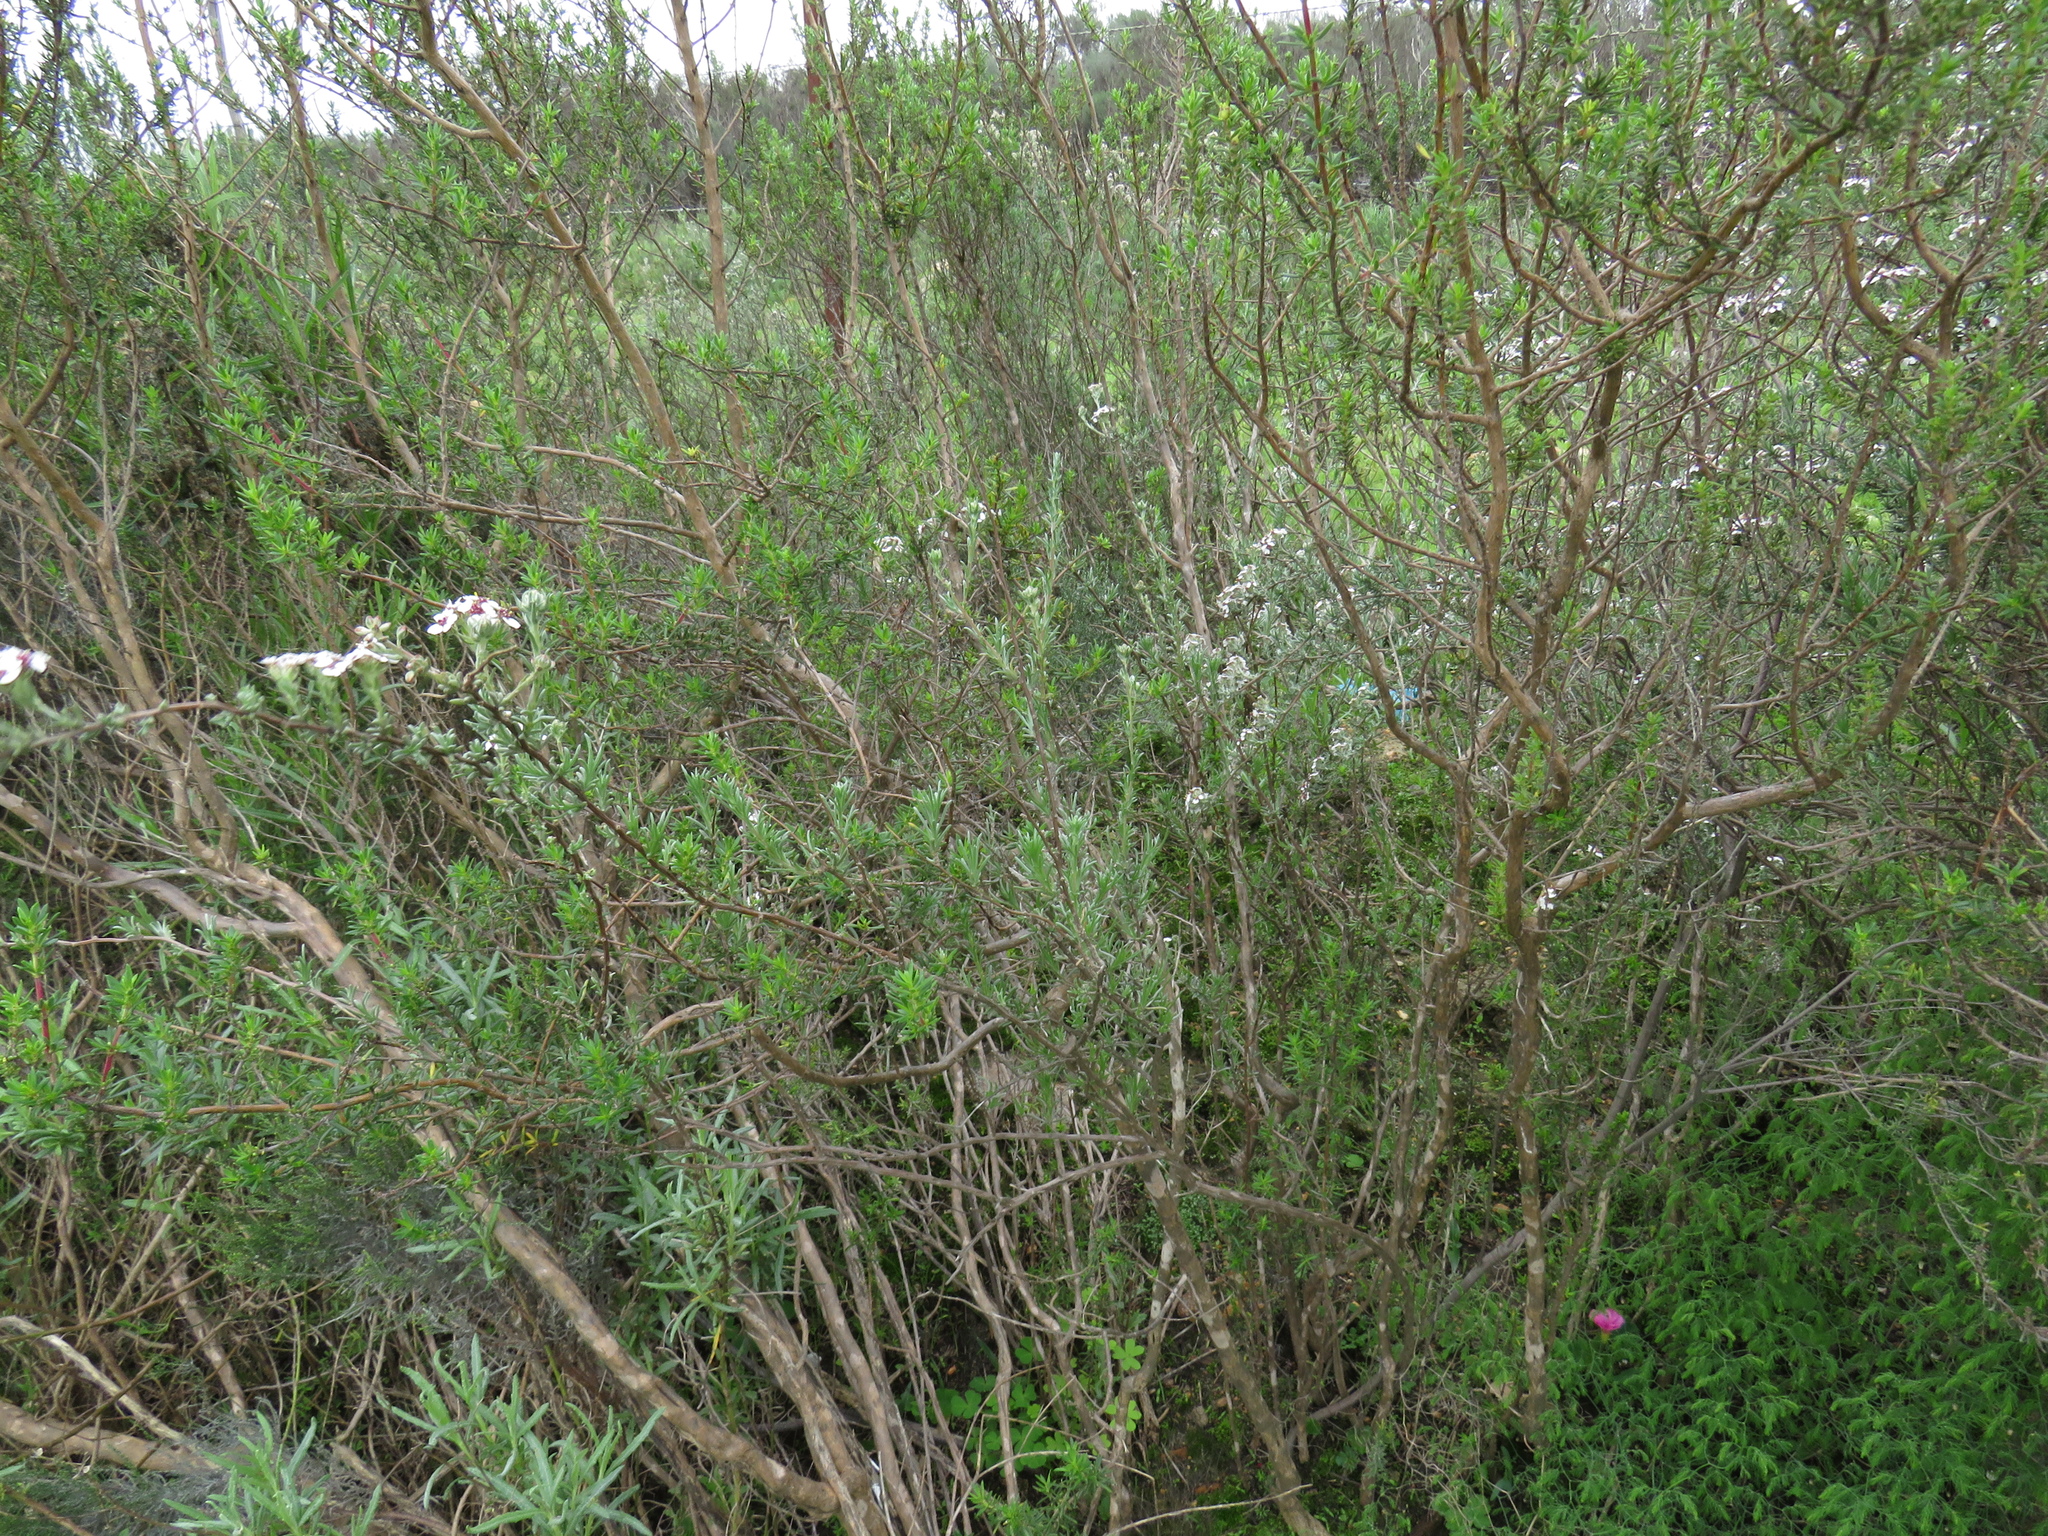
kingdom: Plantae
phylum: Tracheophyta
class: Magnoliopsida
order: Asterales
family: Asteraceae
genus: Eriocephalus
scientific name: Eriocephalus africanus
